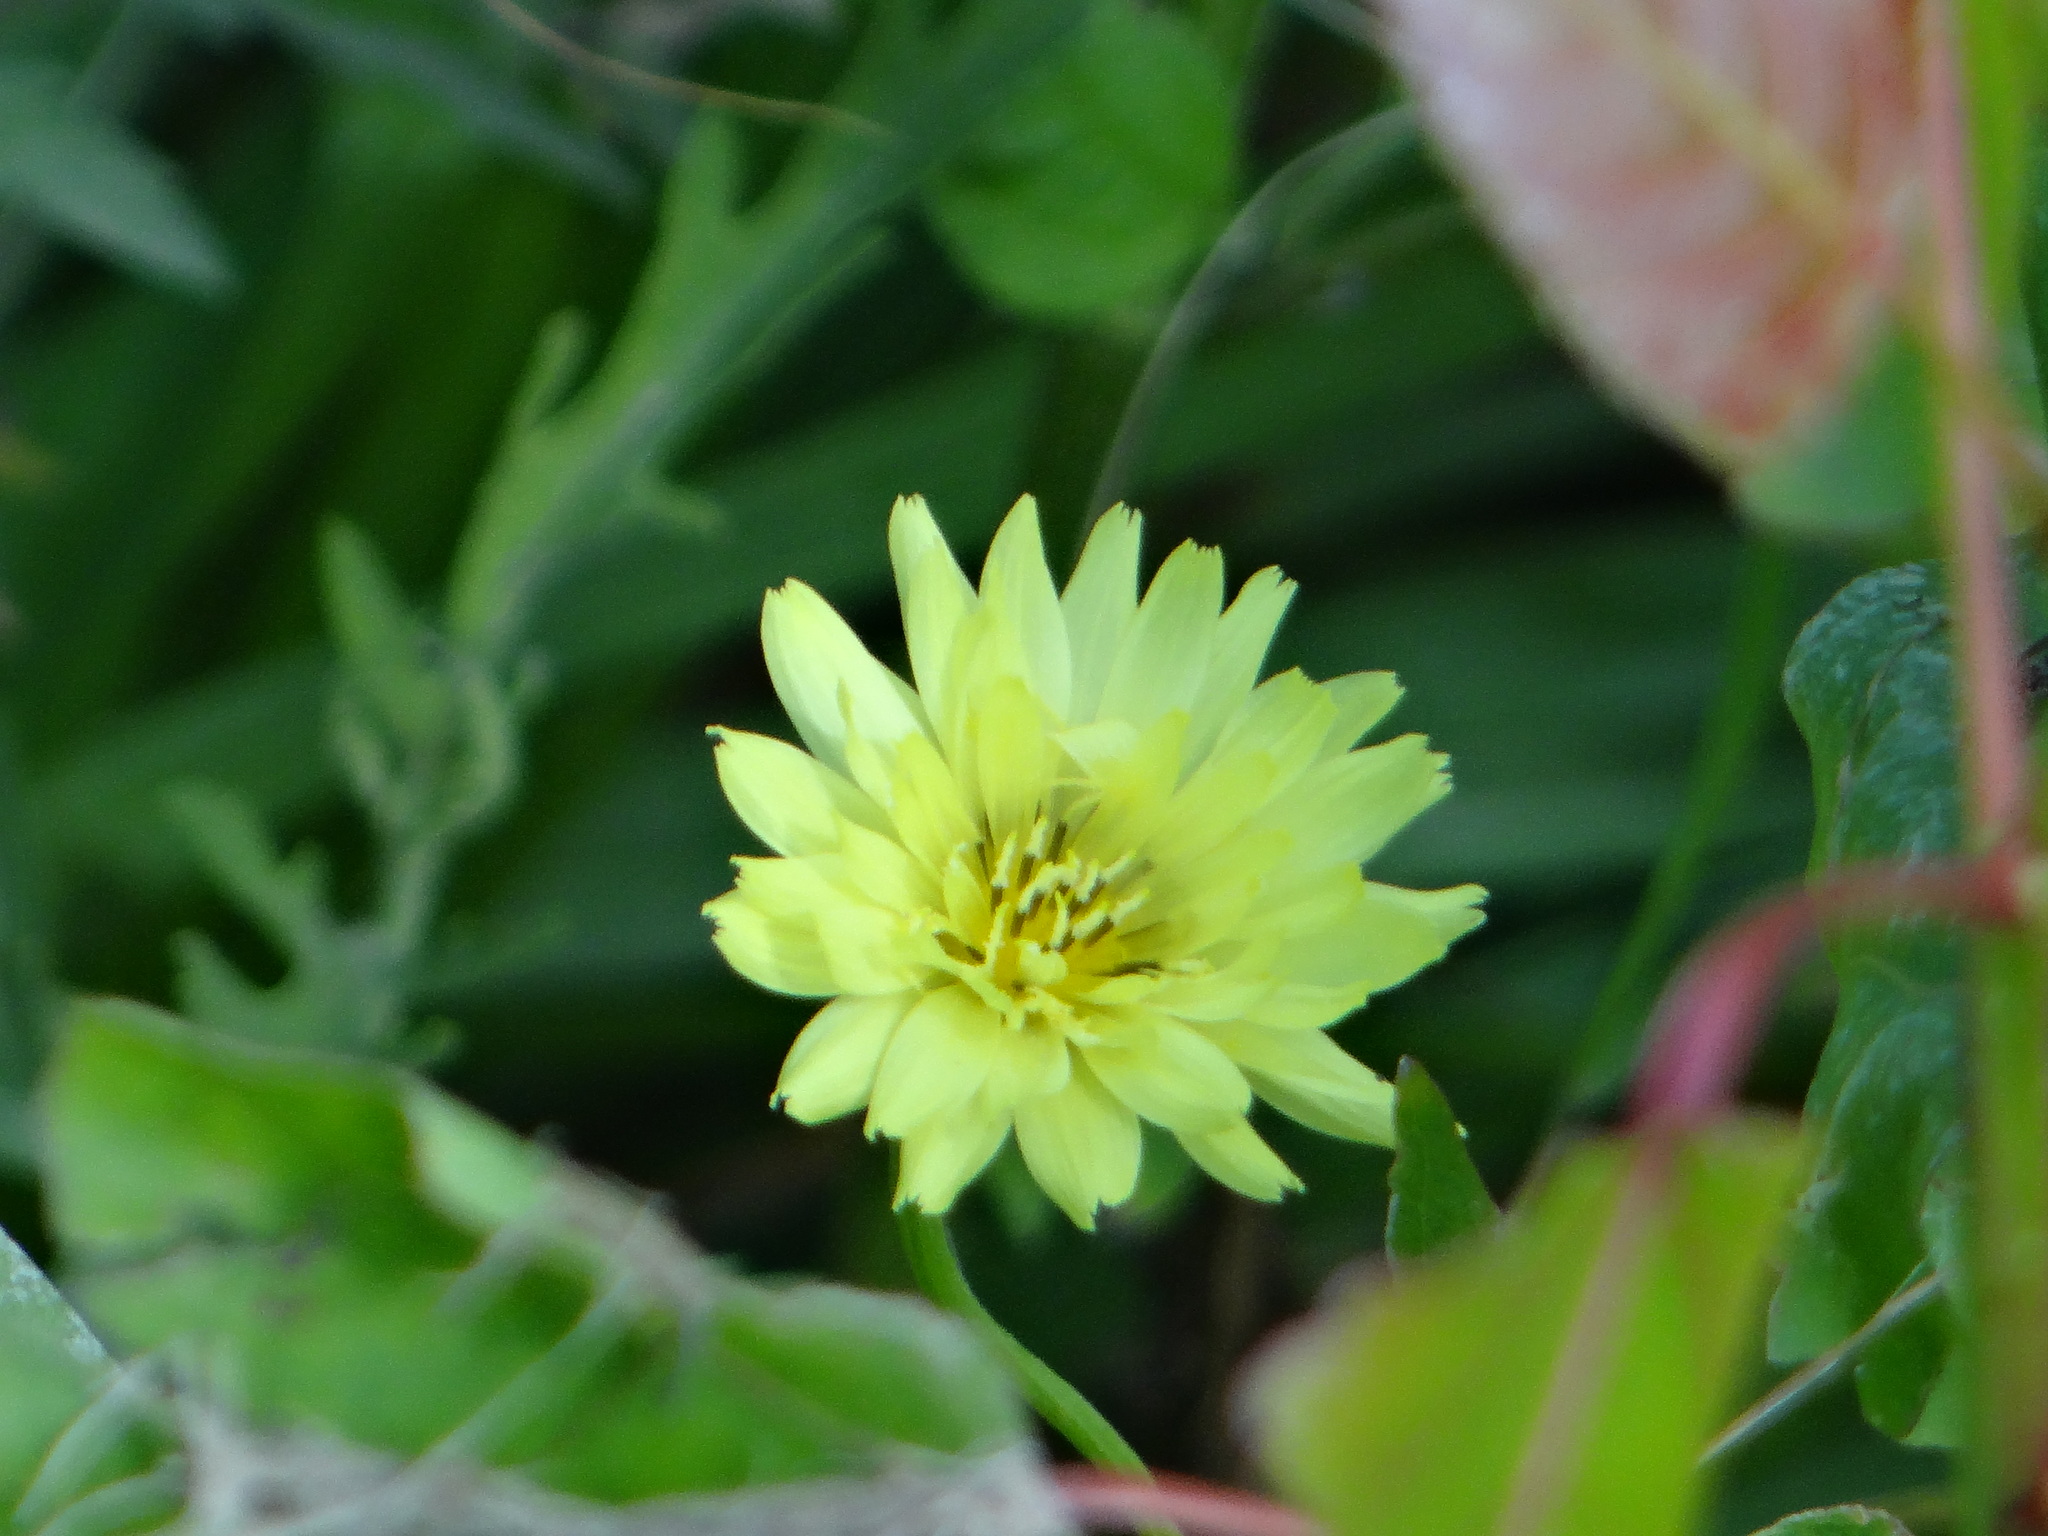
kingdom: Plantae
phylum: Tracheophyta
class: Magnoliopsida
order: Asterales
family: Asteraceae
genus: Pyrrhopappus
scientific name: Pyrrhopappus pauciflorus
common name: Texas false dandelion
